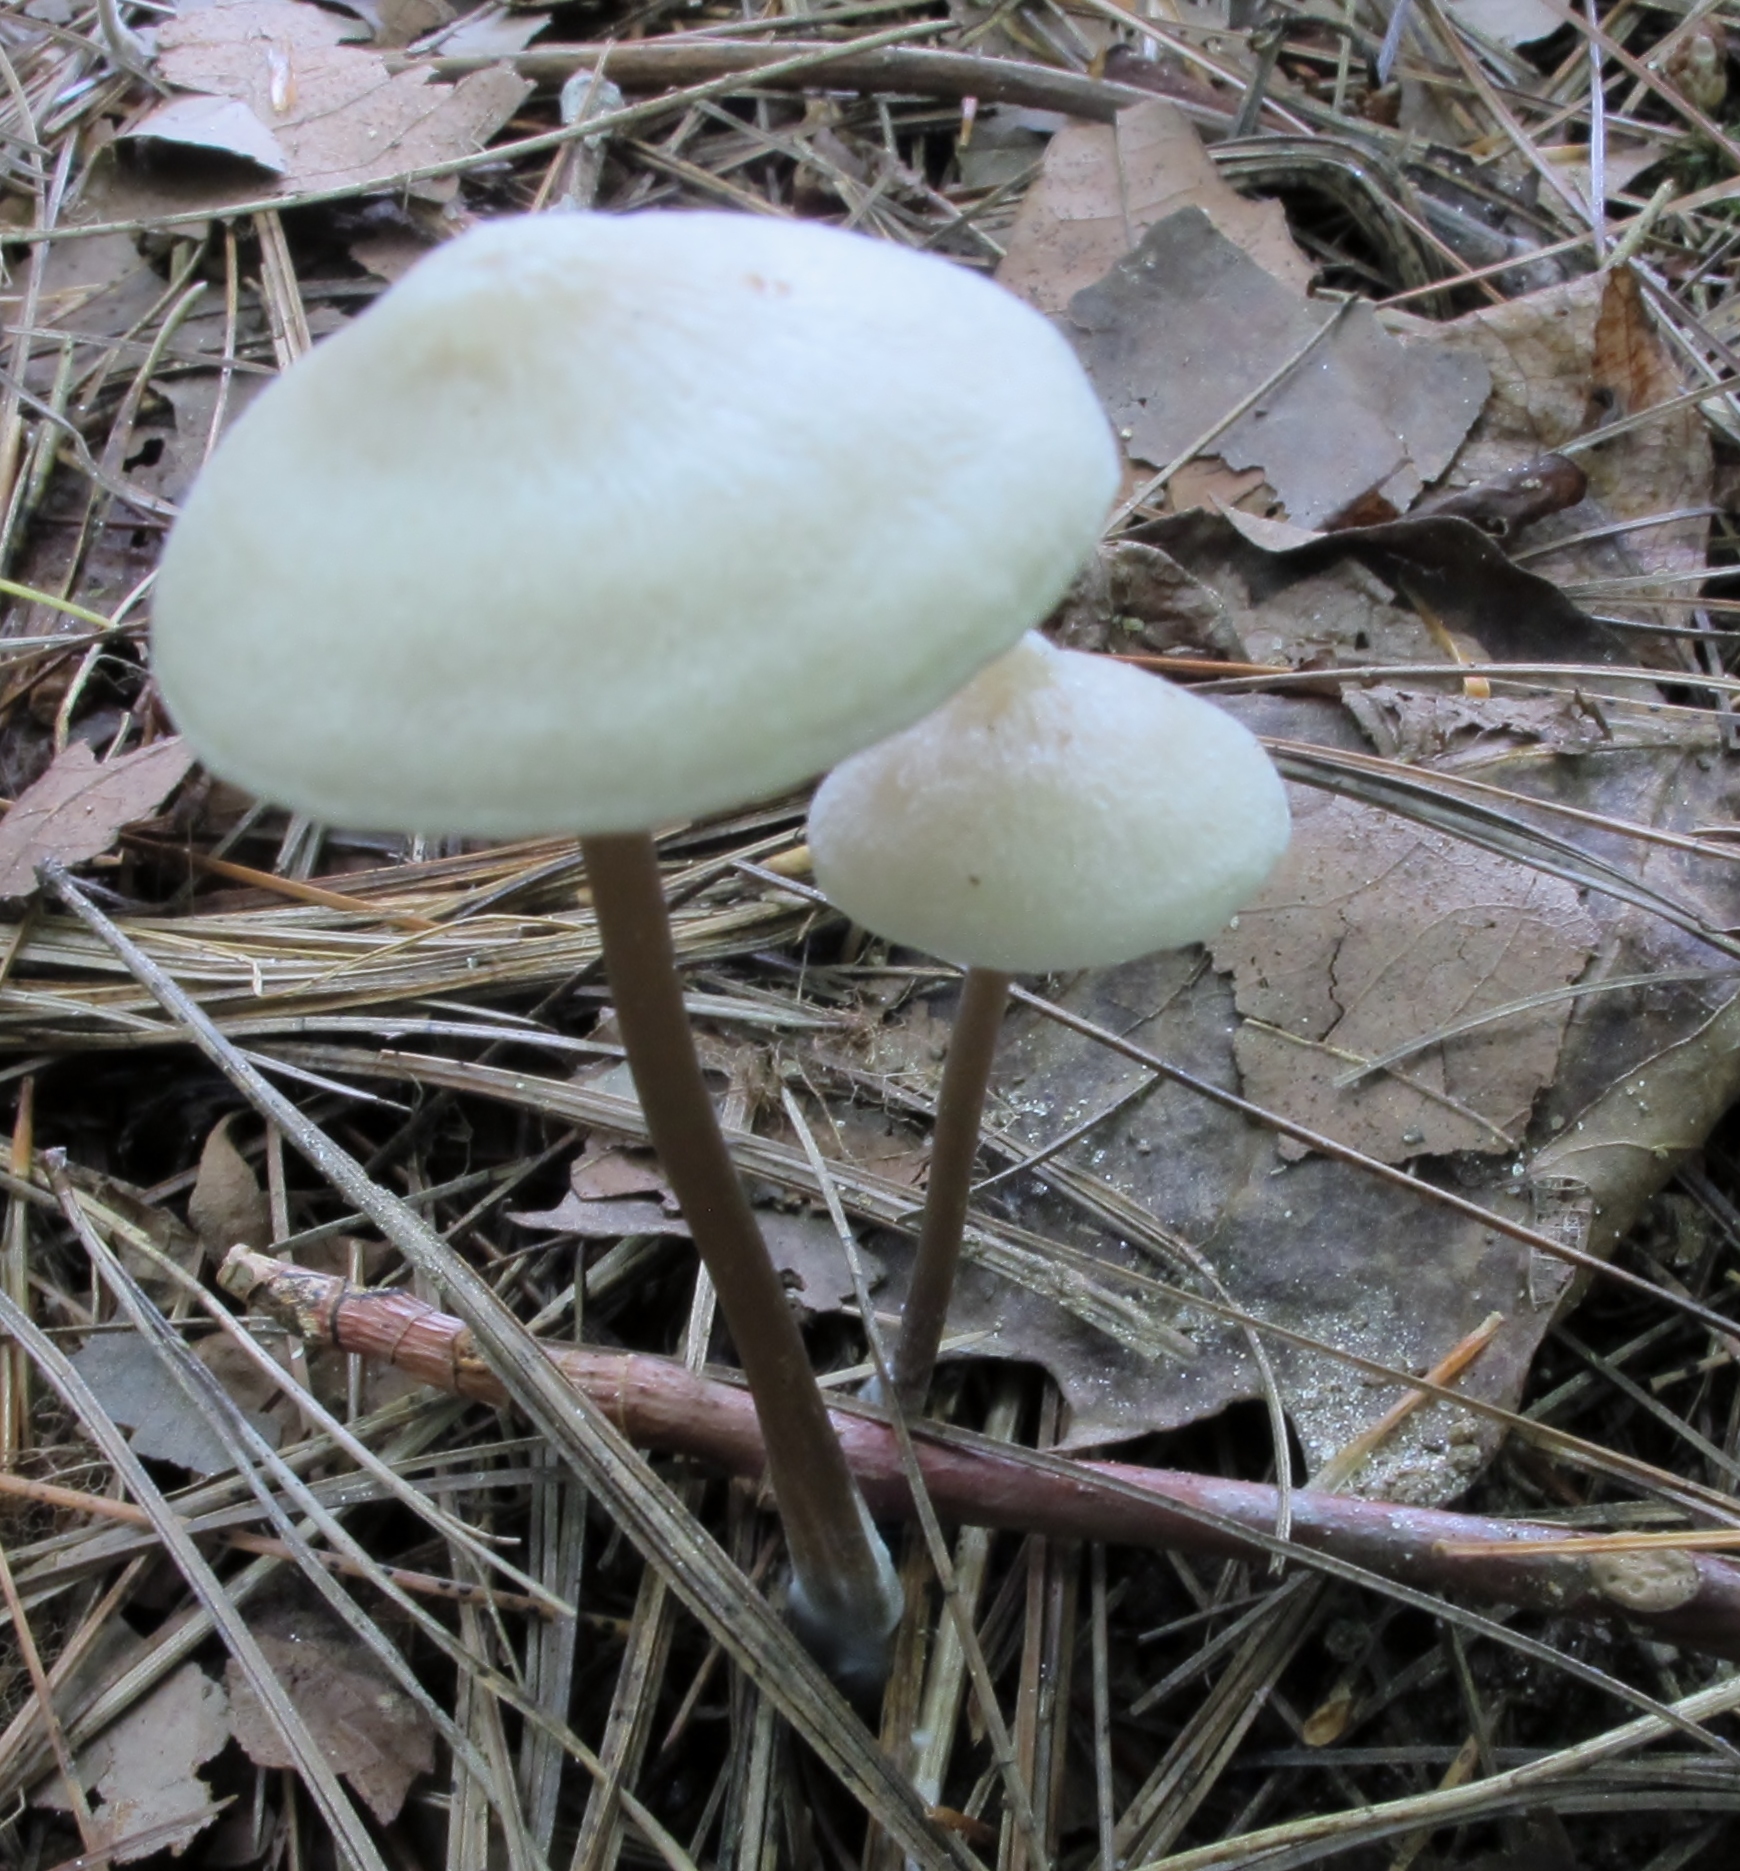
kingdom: Fungi
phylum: Basidiomycota
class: Agaricomycetes
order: Agaricales
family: Entolomataceae
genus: Entoloma
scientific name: Entoloma conicum
